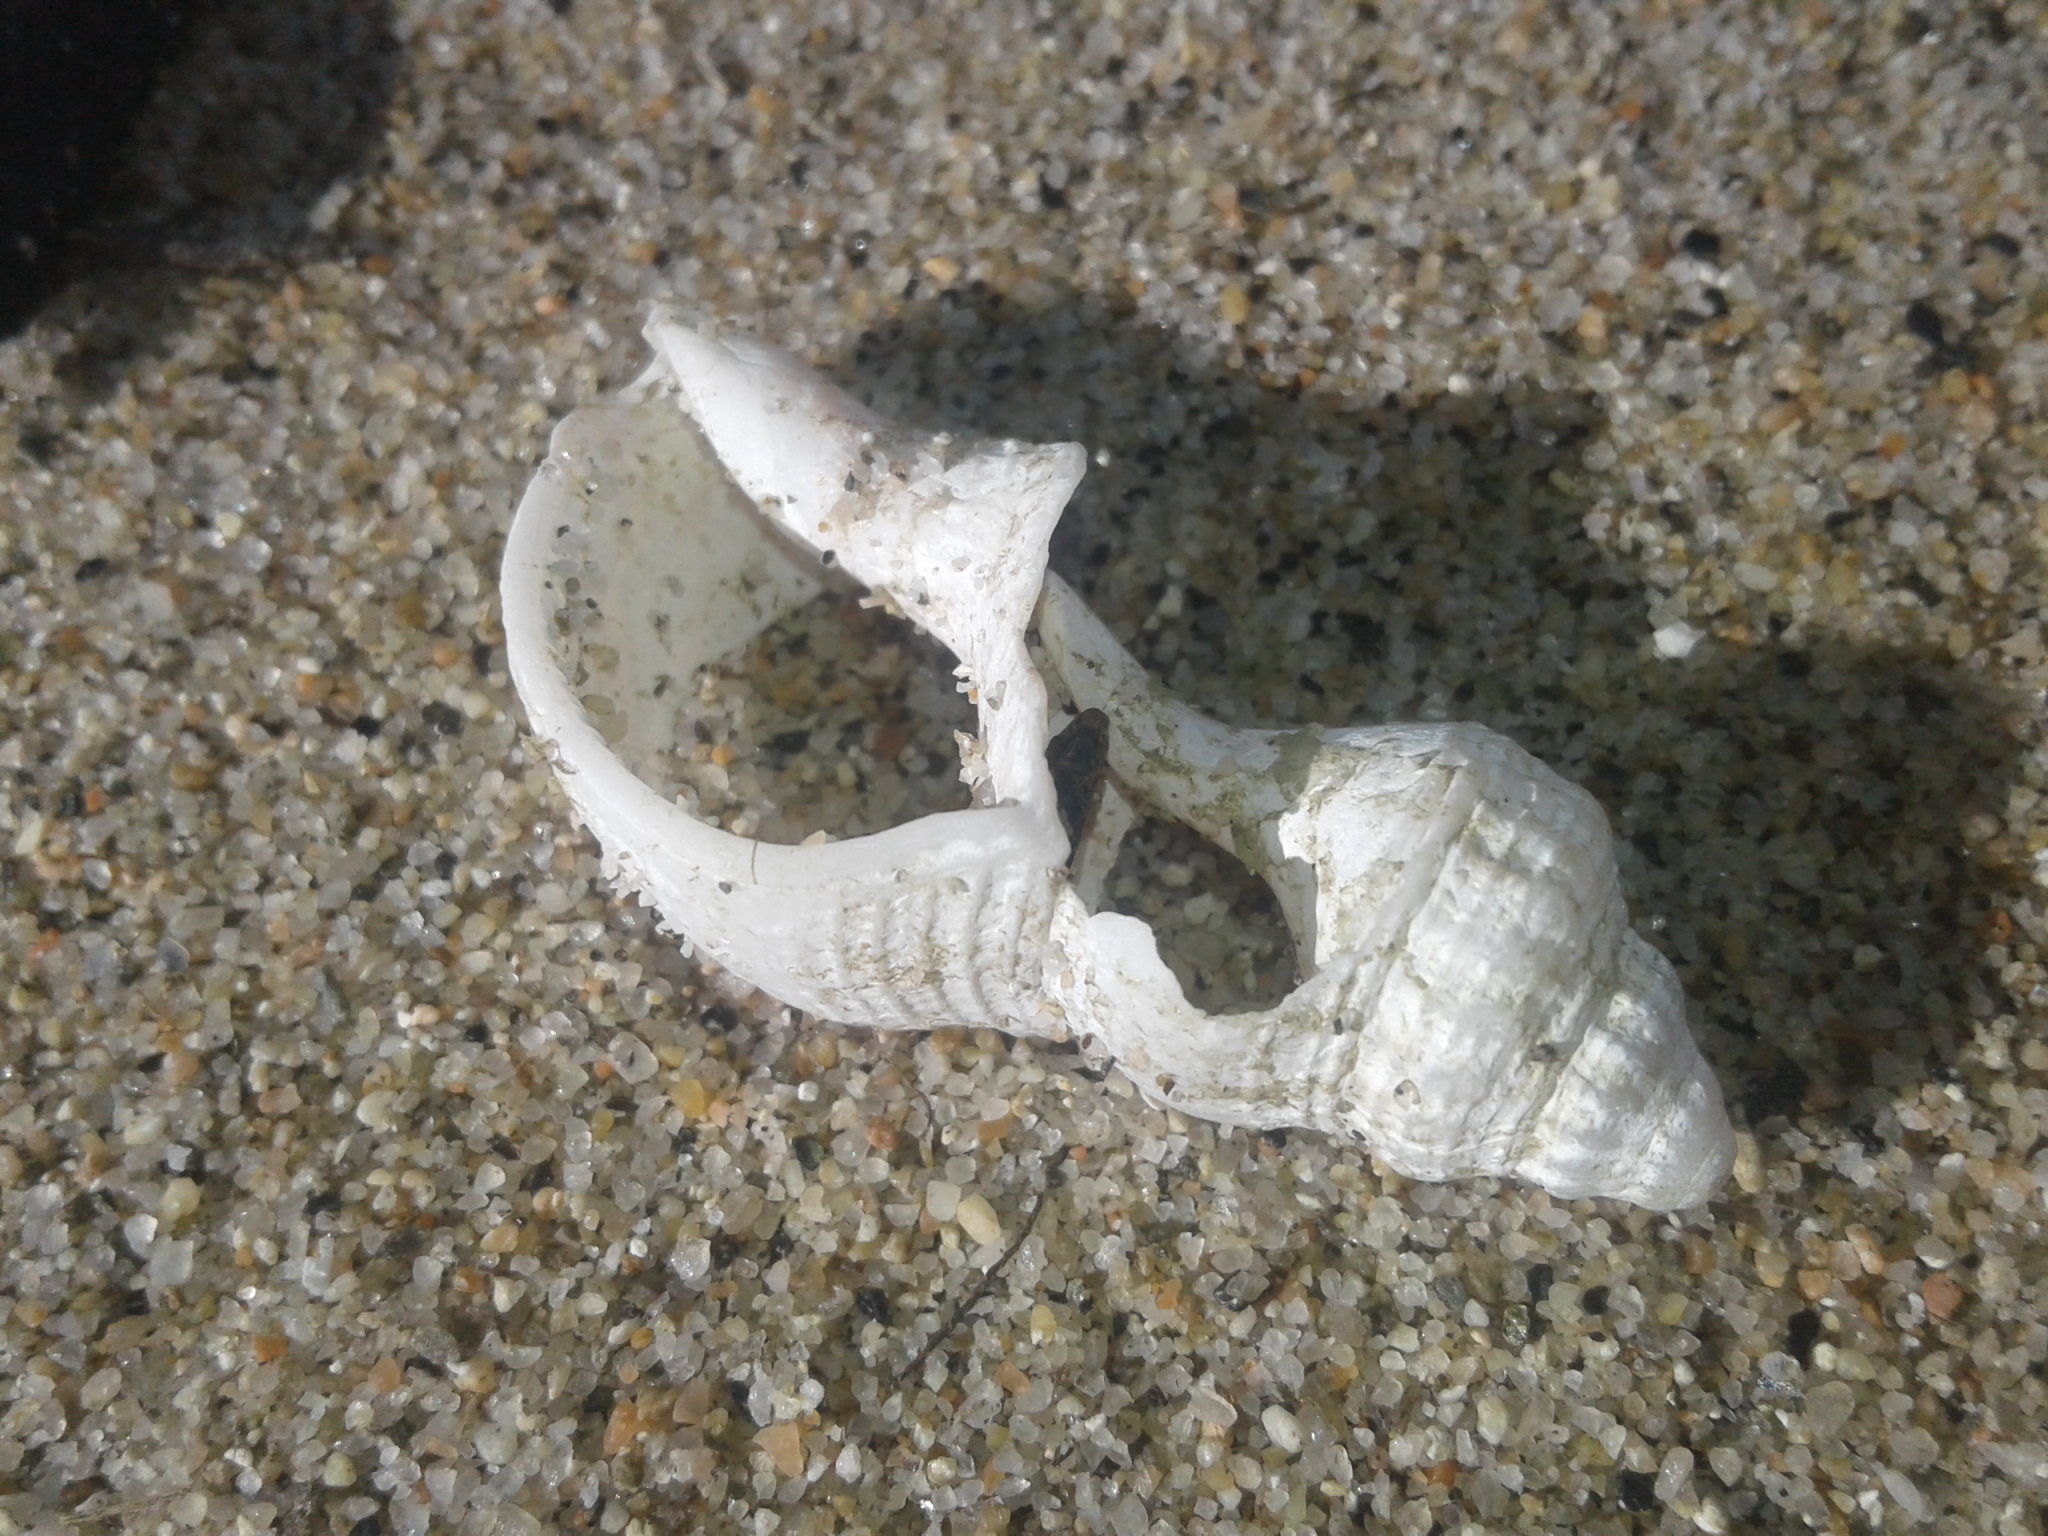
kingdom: Animalia
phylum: Mollusca
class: Gastropoda
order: Neogastropoda
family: Austrosiphonidae
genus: Penion
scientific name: Penion sulcatus
